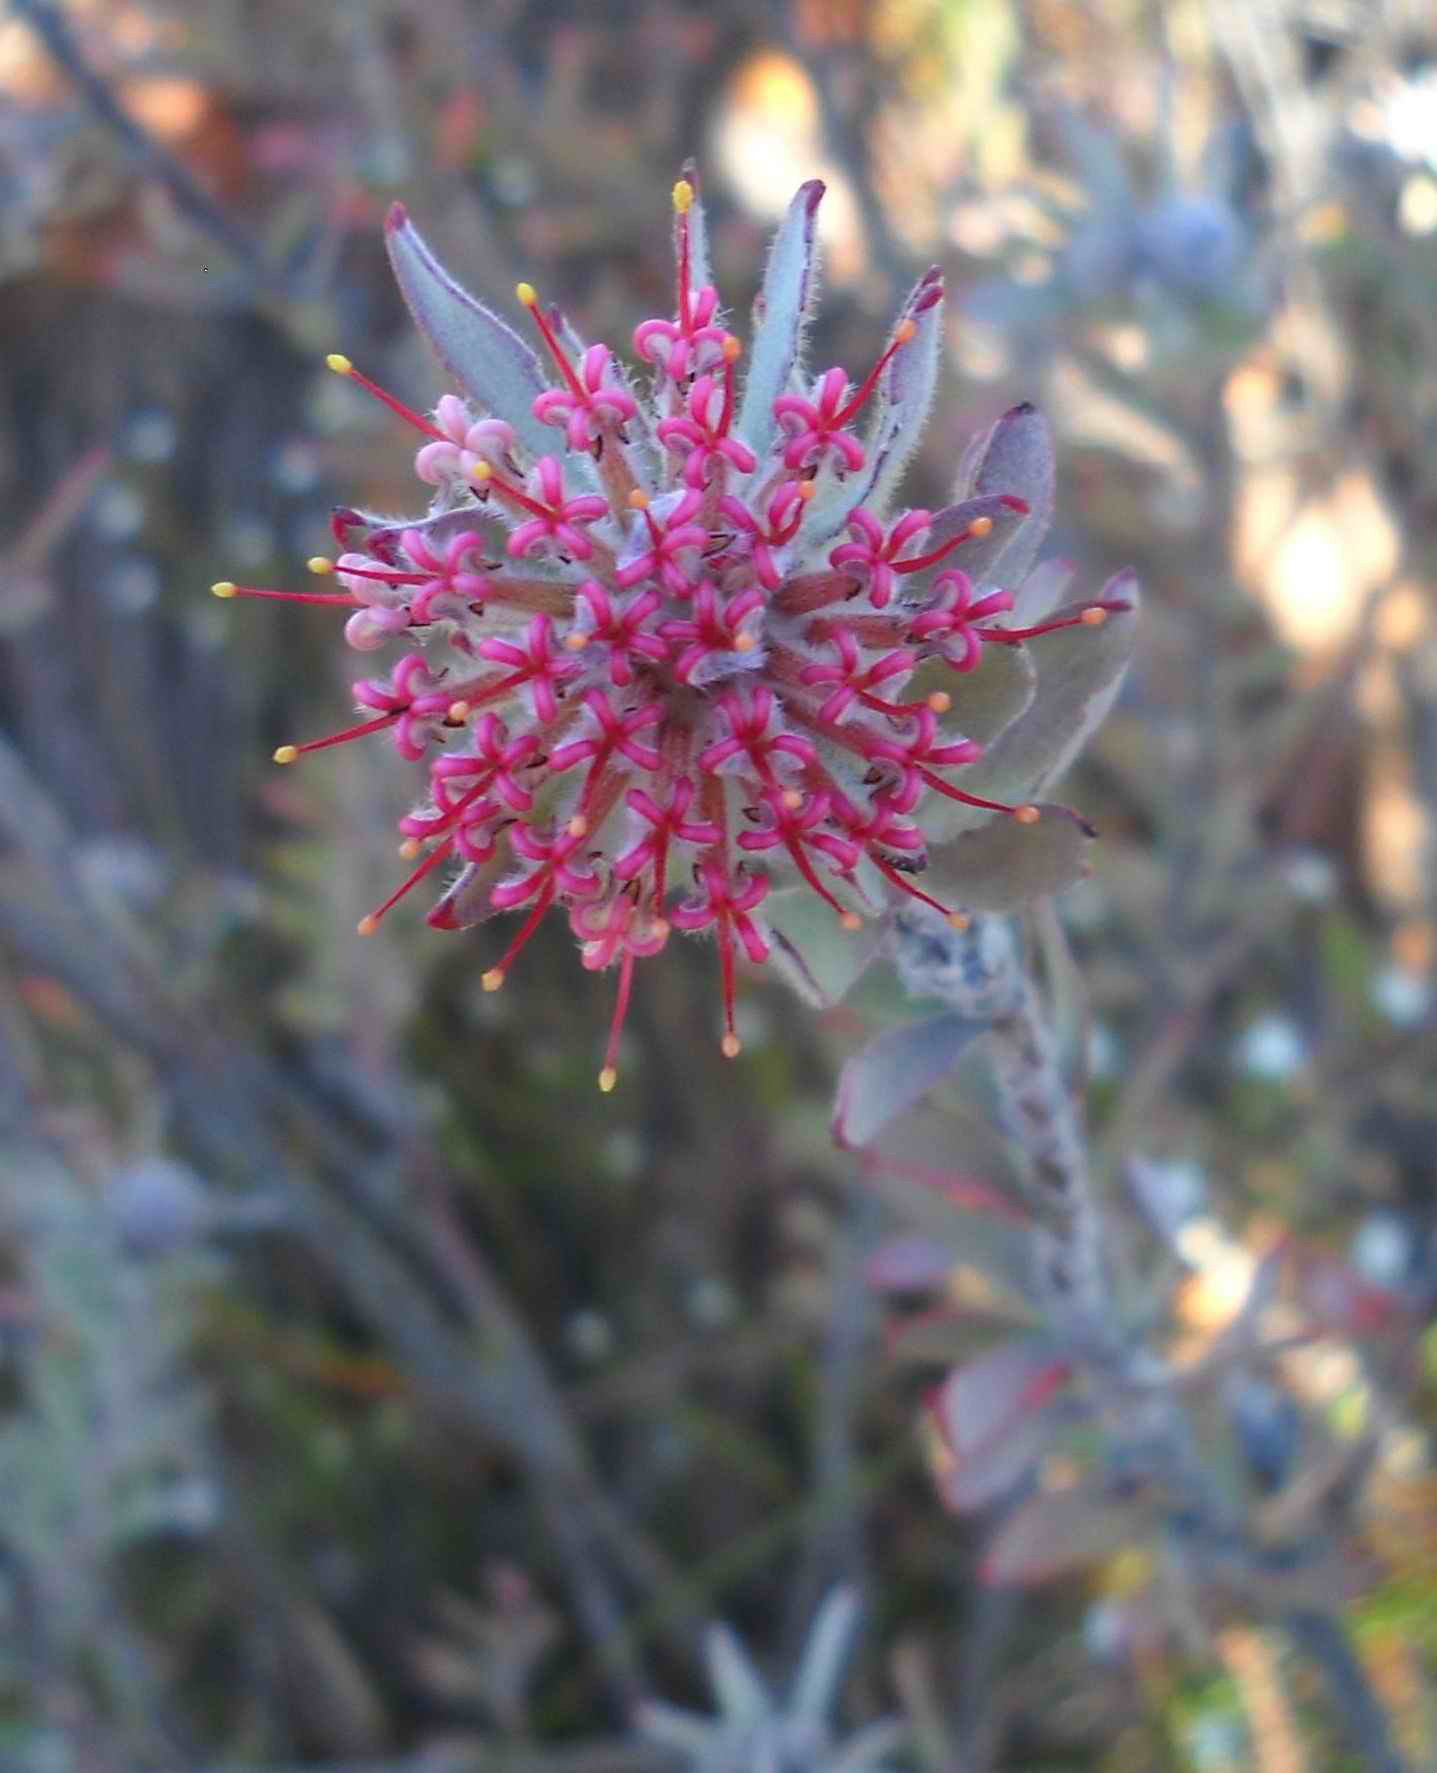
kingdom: Plantae
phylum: Tracheophyta
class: Magnoliopsida
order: Proteales
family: Proteaceae
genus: Leucospermum
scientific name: Leucospermum wittebergense
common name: Swartberg pincushion
